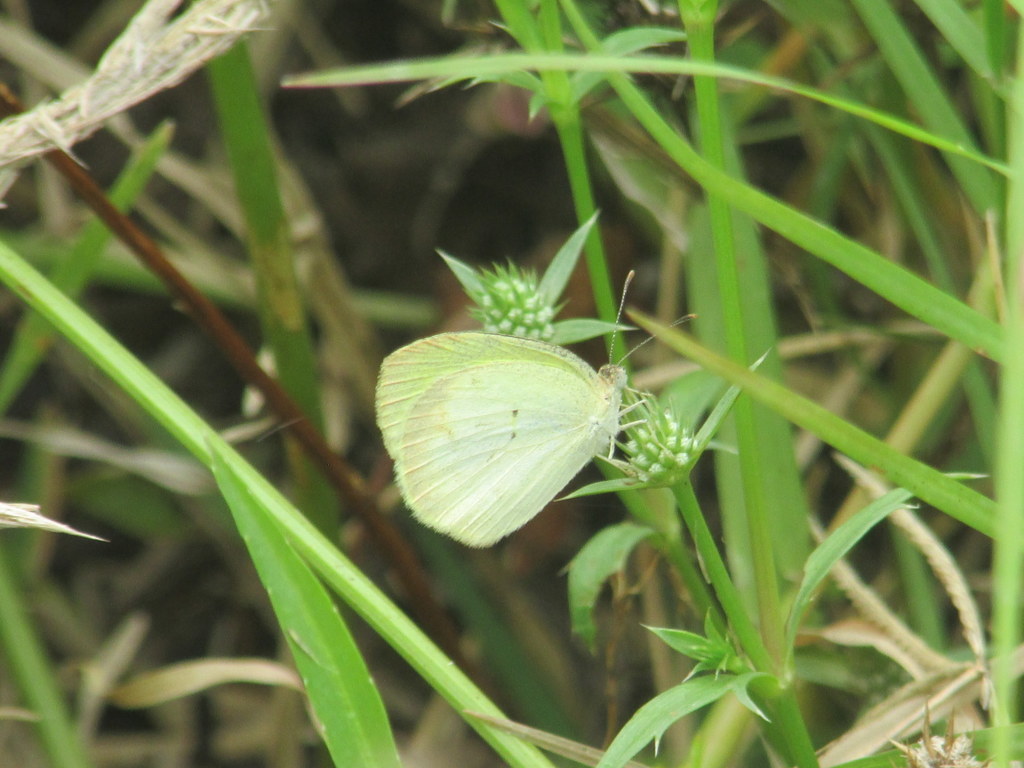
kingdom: Animalia
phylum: Arthropoda
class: Insecta
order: Lepidoptera
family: Pieridae
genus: Eurema
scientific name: Eurema elathea
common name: Banded yellow
